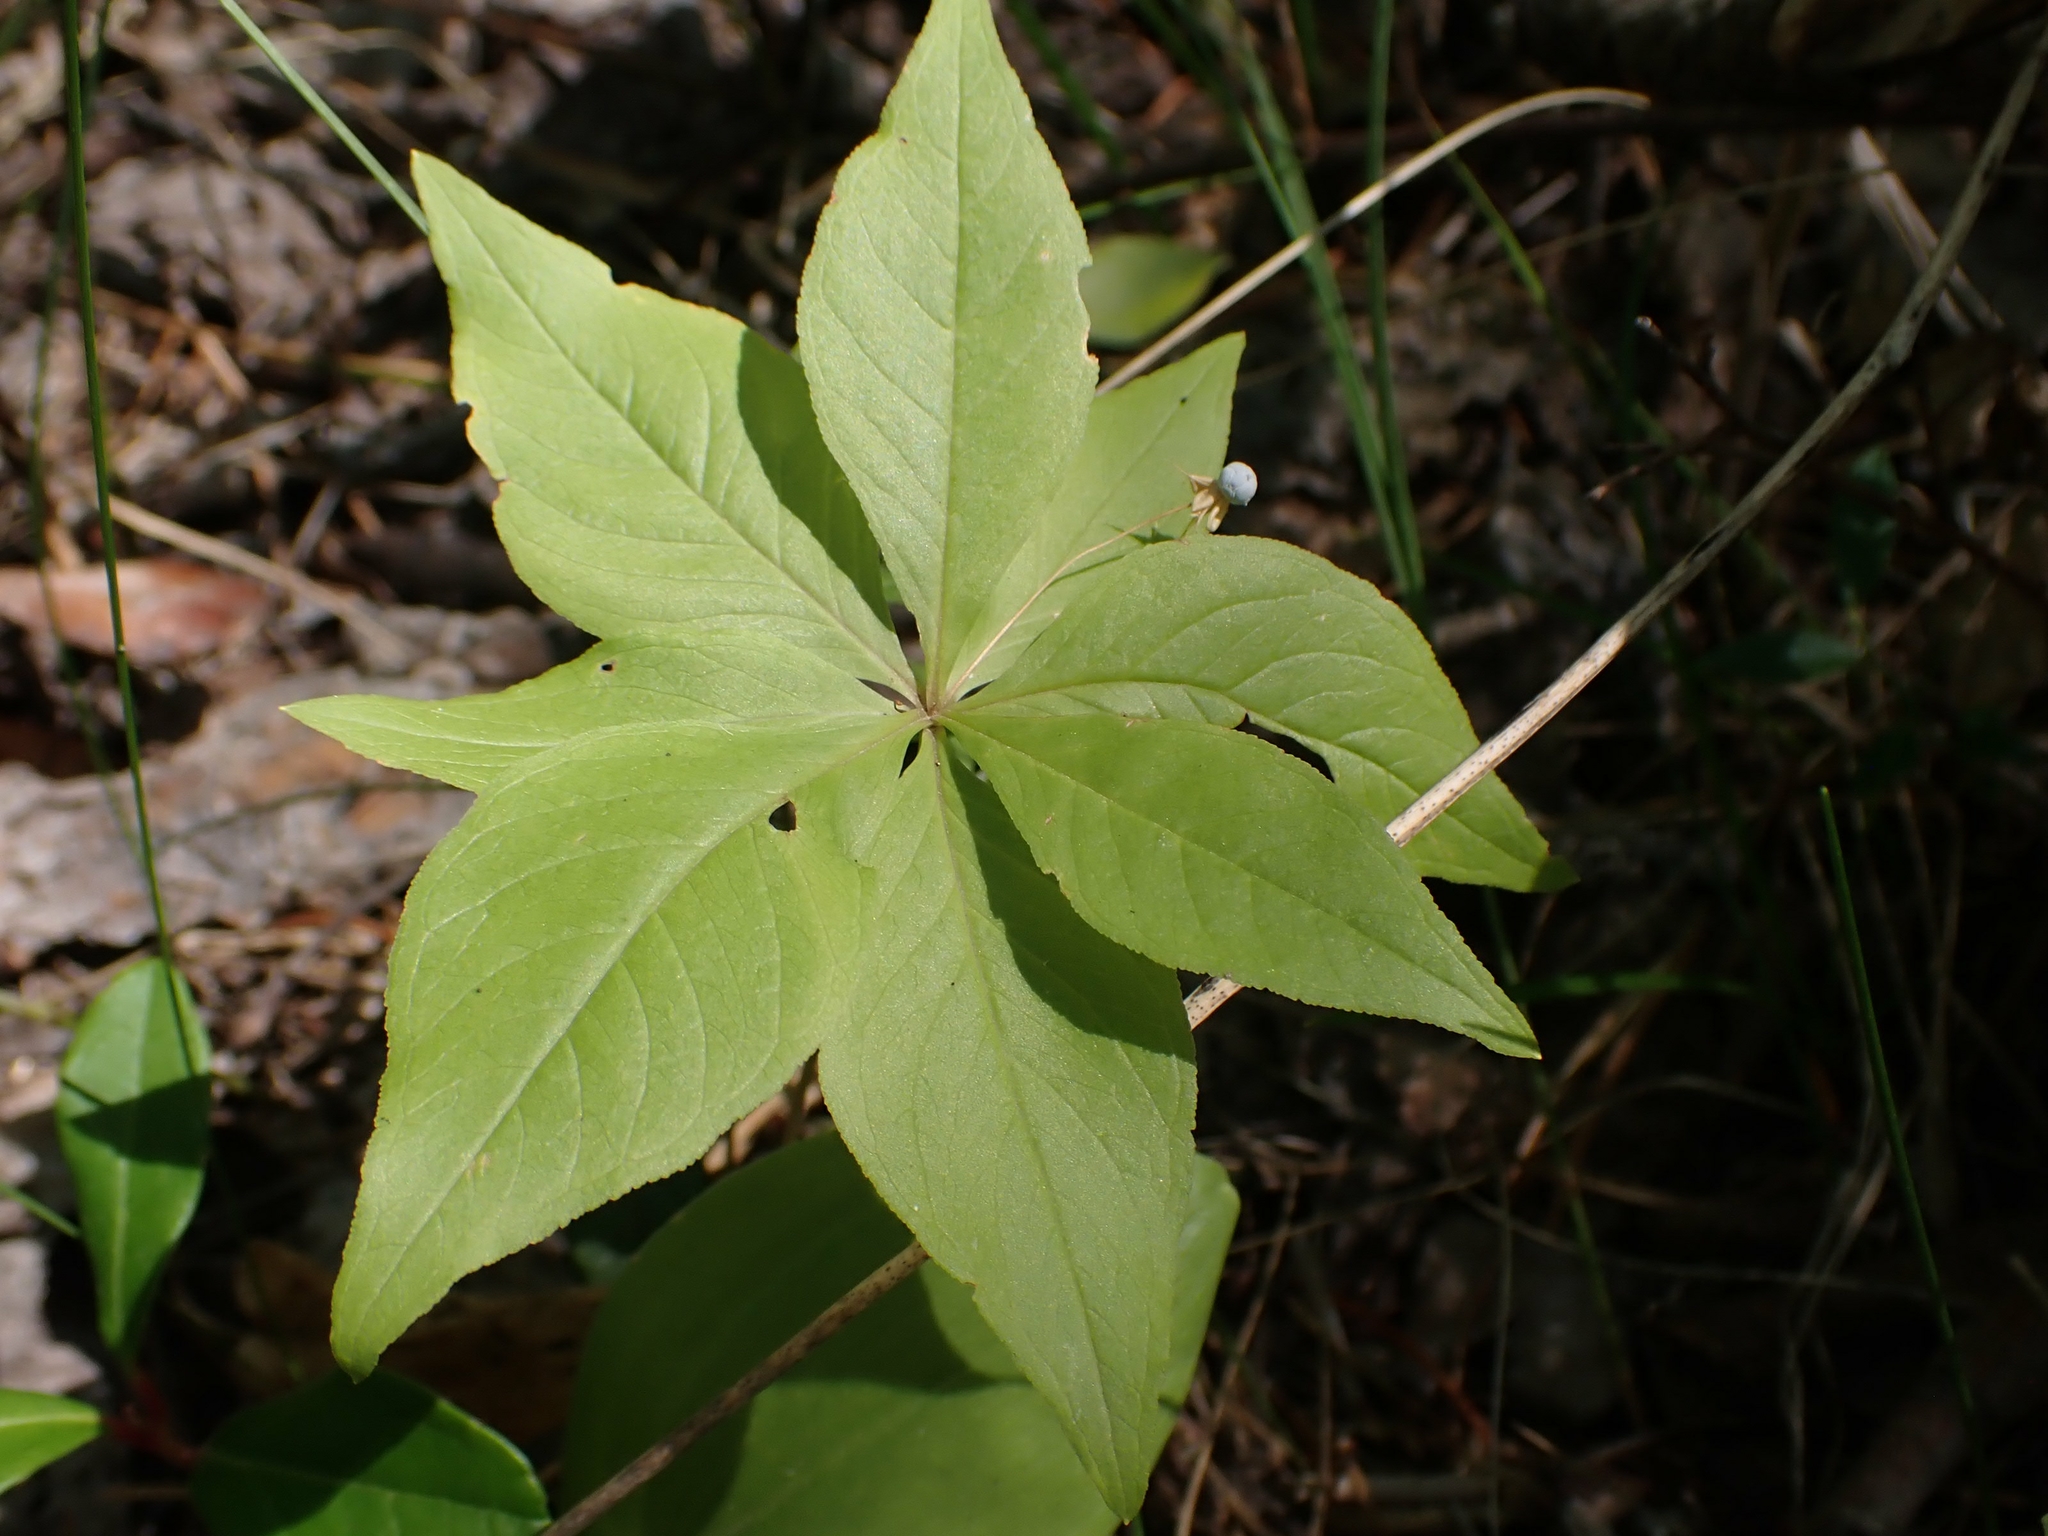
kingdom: Plantae
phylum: Tracheophyta
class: Magnoliopsida
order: Ericales
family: Primulaceae
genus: Lysimachia
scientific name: Lysimachia borealis
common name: American starflower
